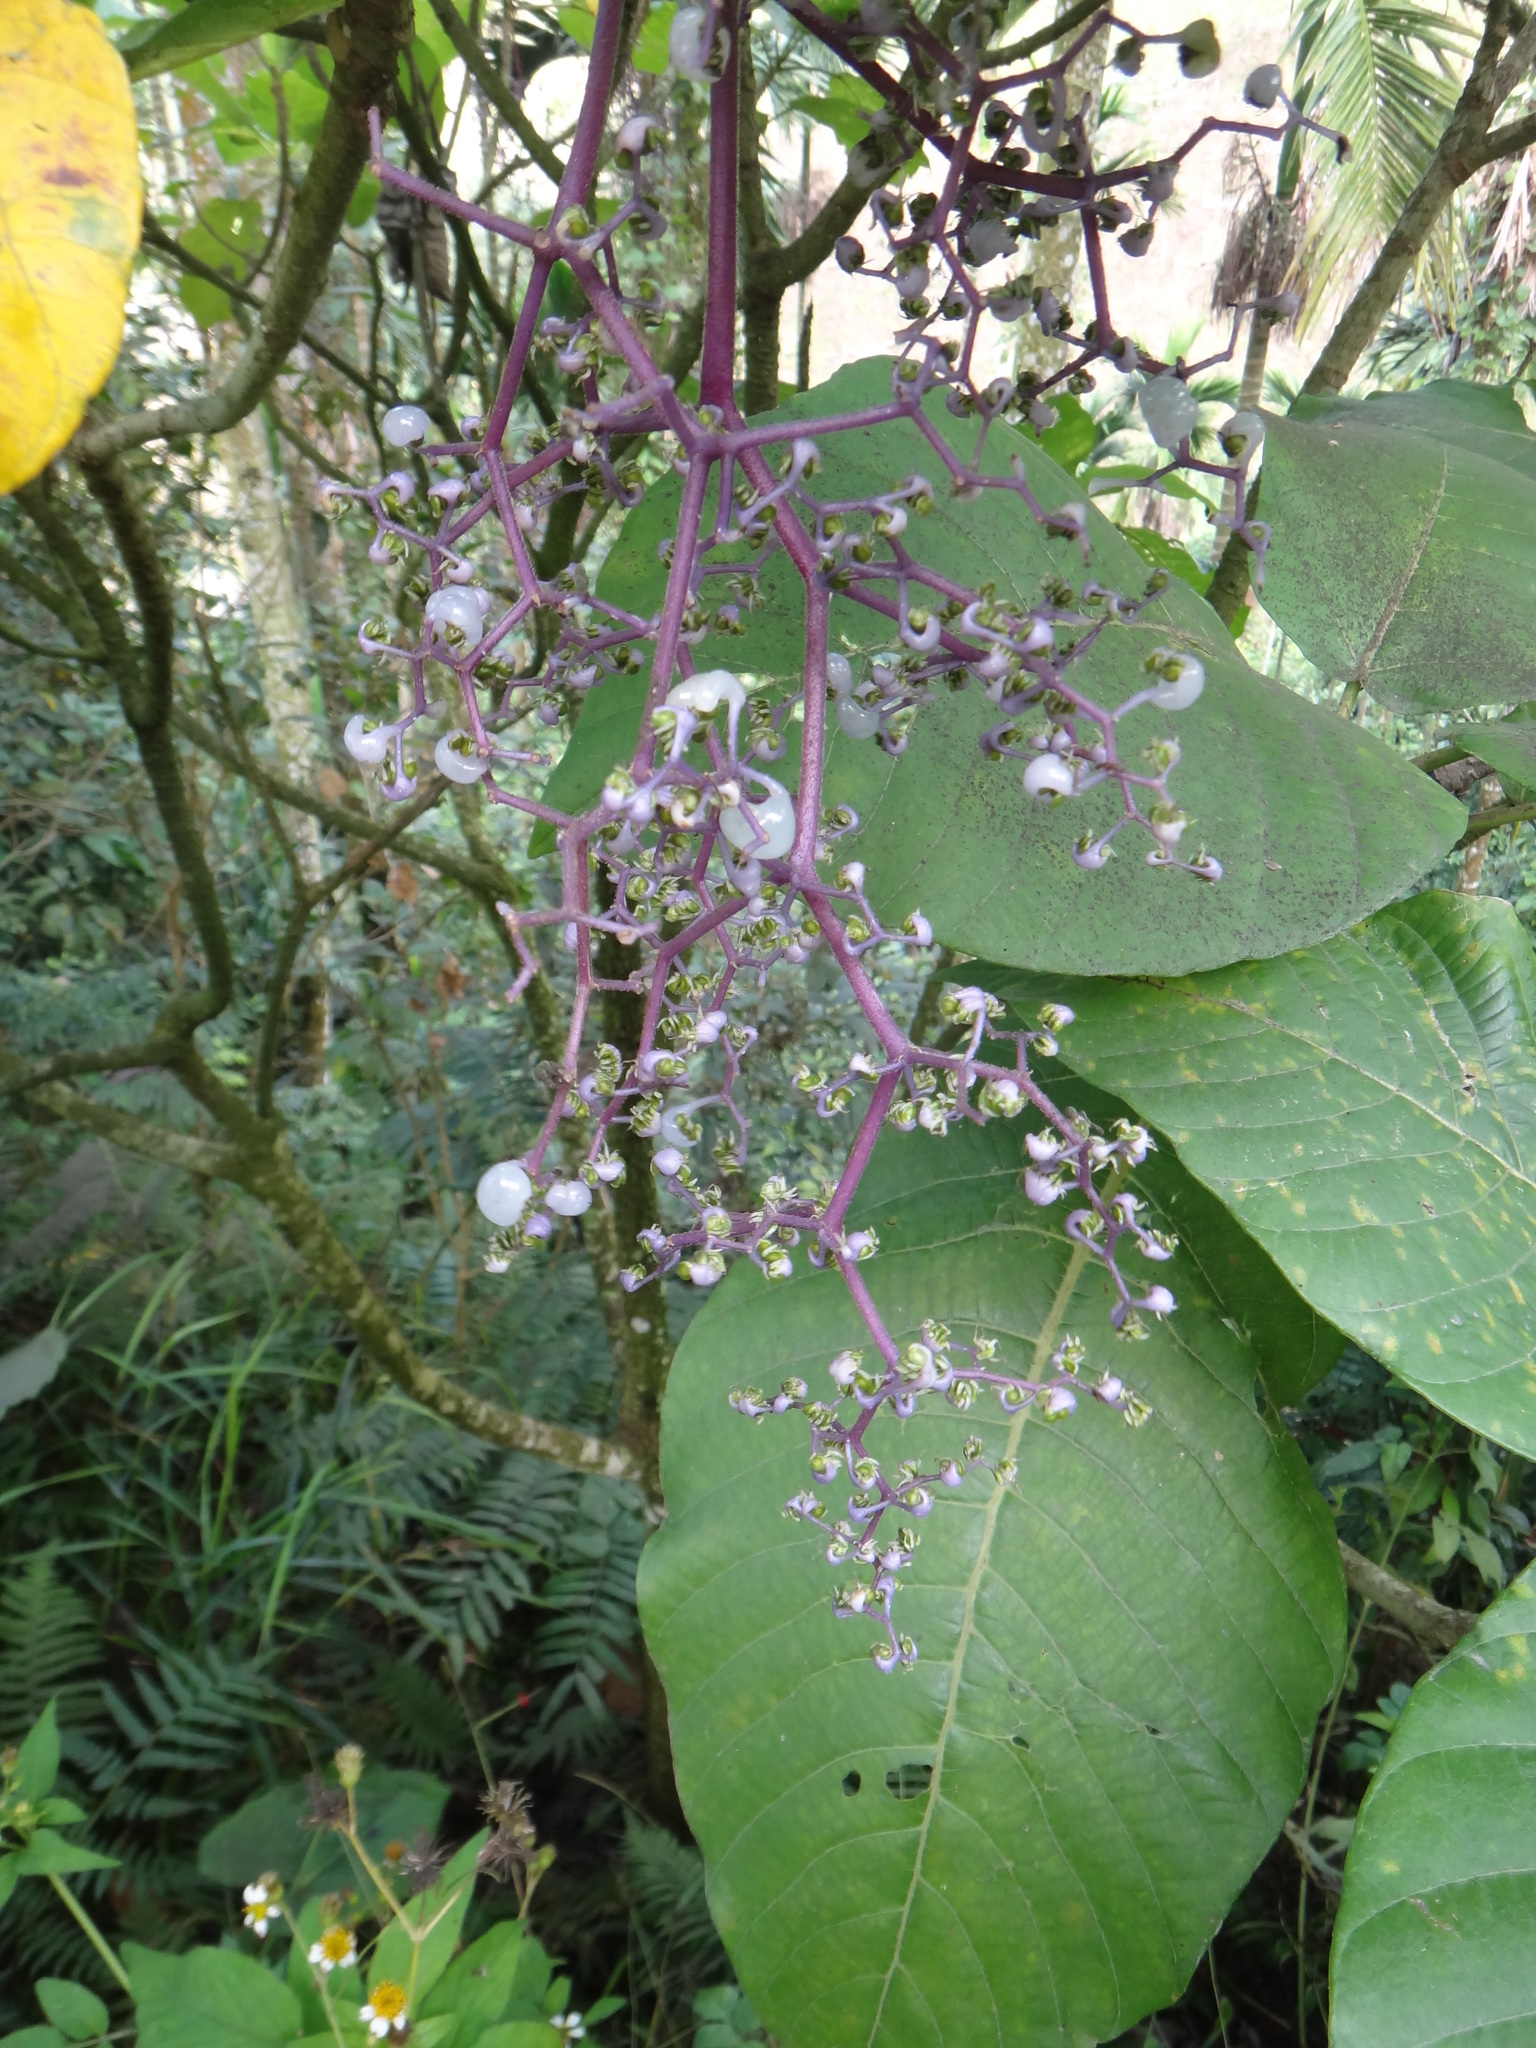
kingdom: Plantae
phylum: Tracheophyta
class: Magnoliopsida
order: Rosales
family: Urticaceae
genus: Dendrocnide
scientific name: Dendrocnide meyeniana
